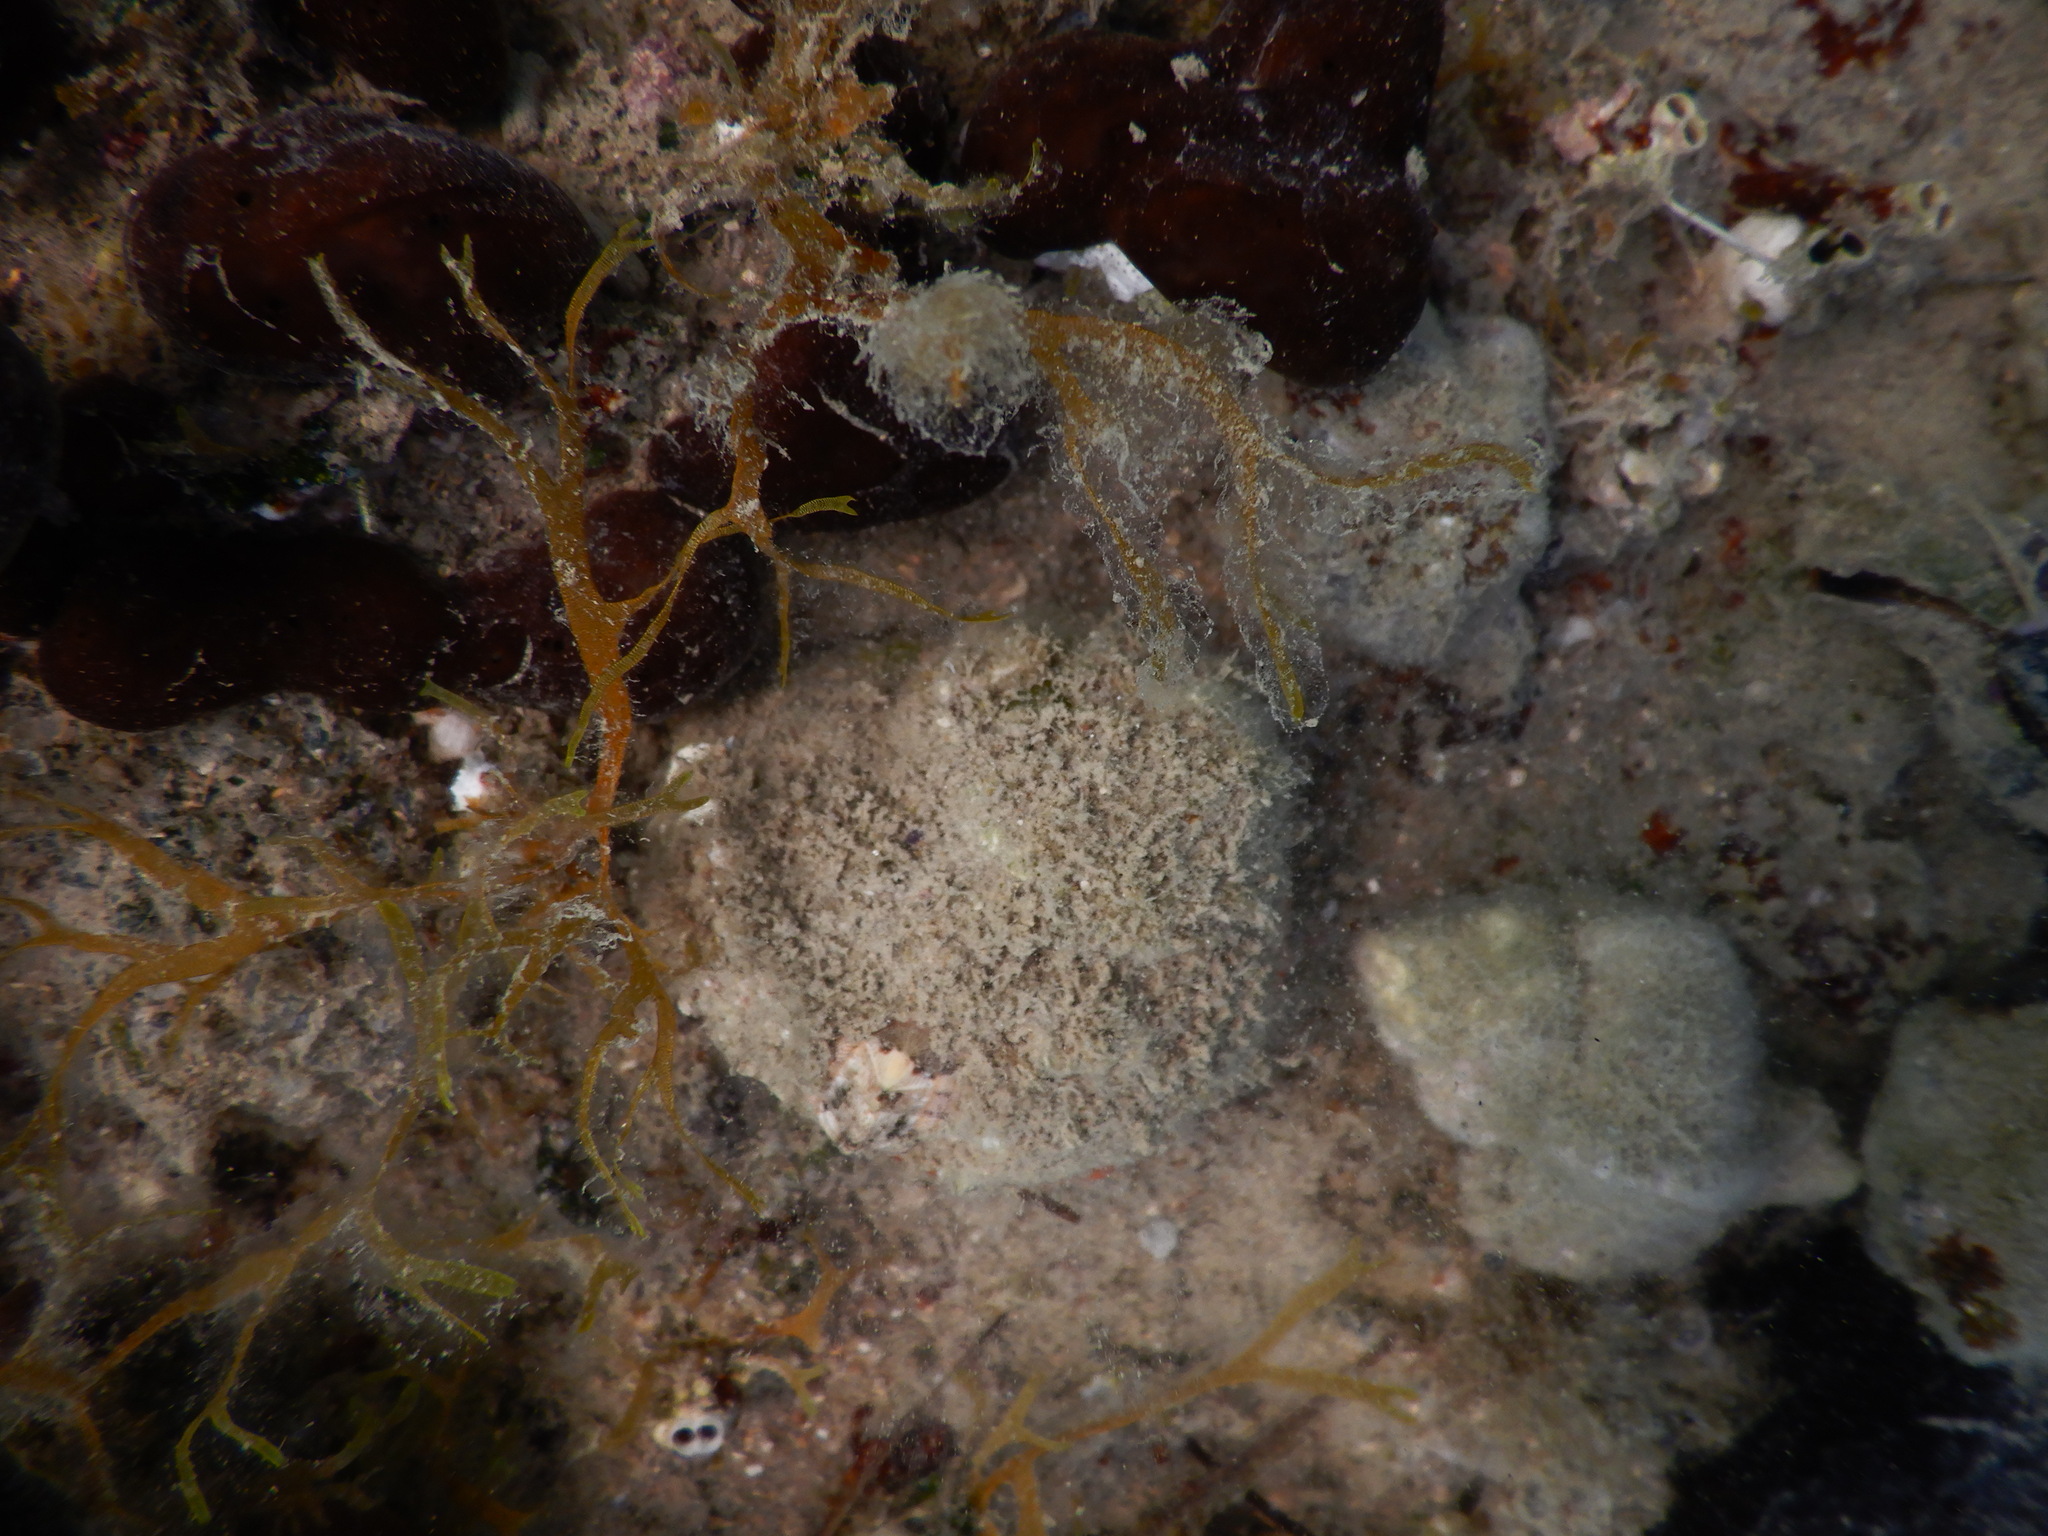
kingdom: Animalia
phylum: Mollusca
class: Gastropoda
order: Trochida
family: Turbinidae
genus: Bolma
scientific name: Bolma rugosa
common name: Rough star shell
